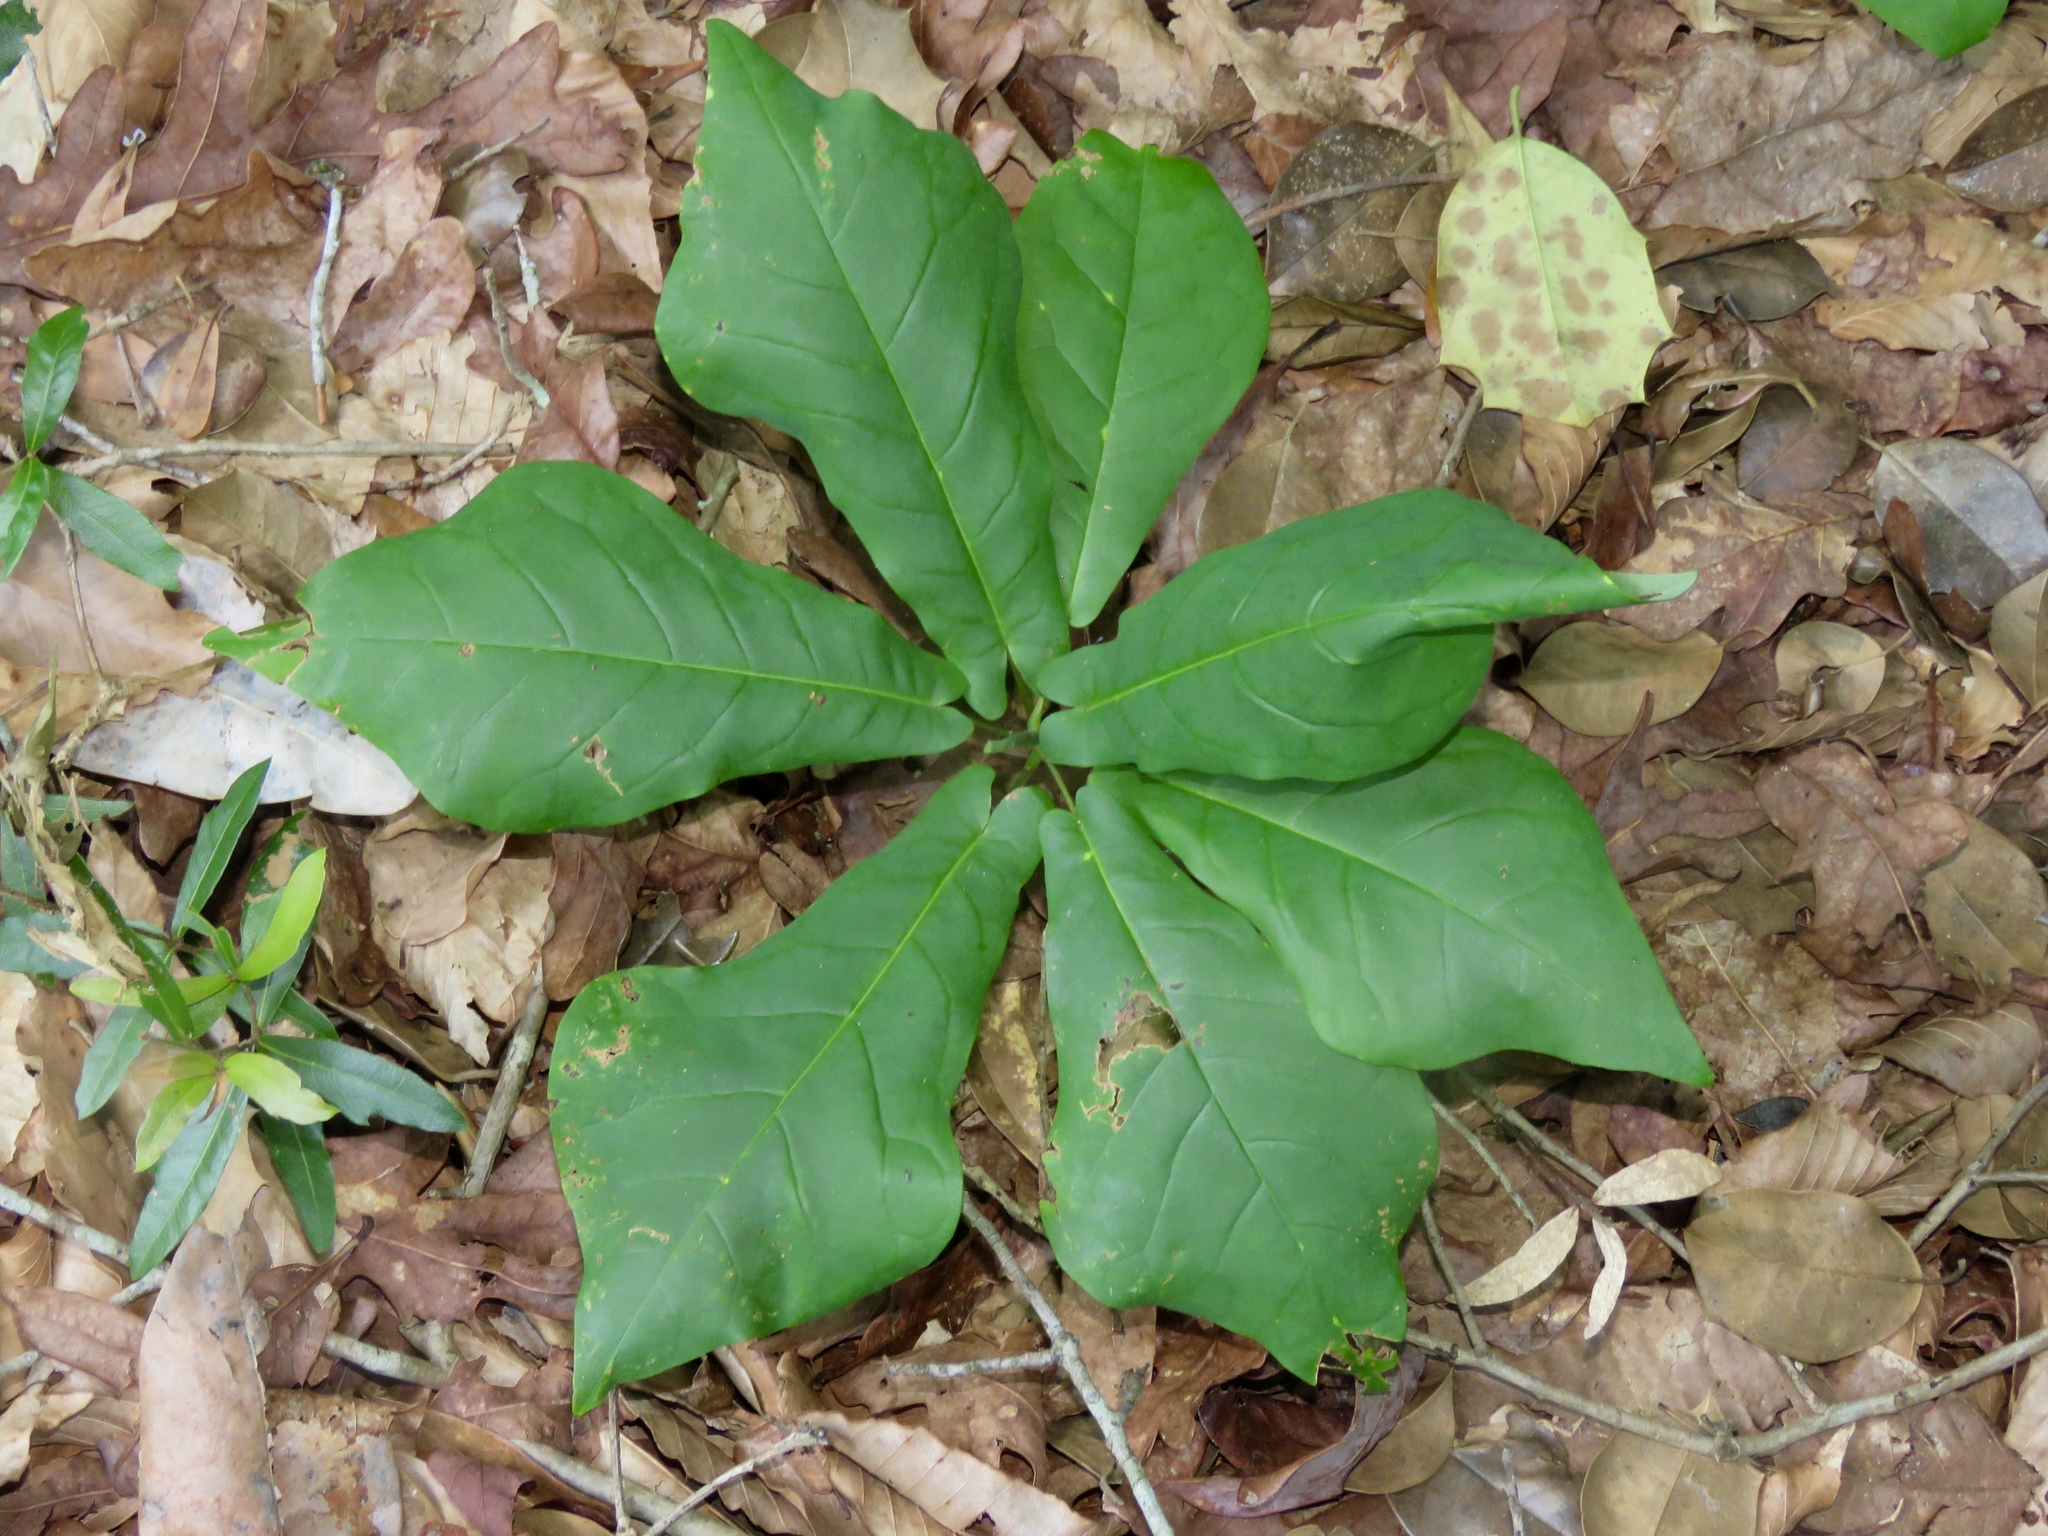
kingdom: Plantae
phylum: Tracheophyta
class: Magnoliopsida
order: Magnoliales
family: Magnoliaceae
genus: Magnolia
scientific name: Magnolia fraseri
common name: Fraser's magnolia
